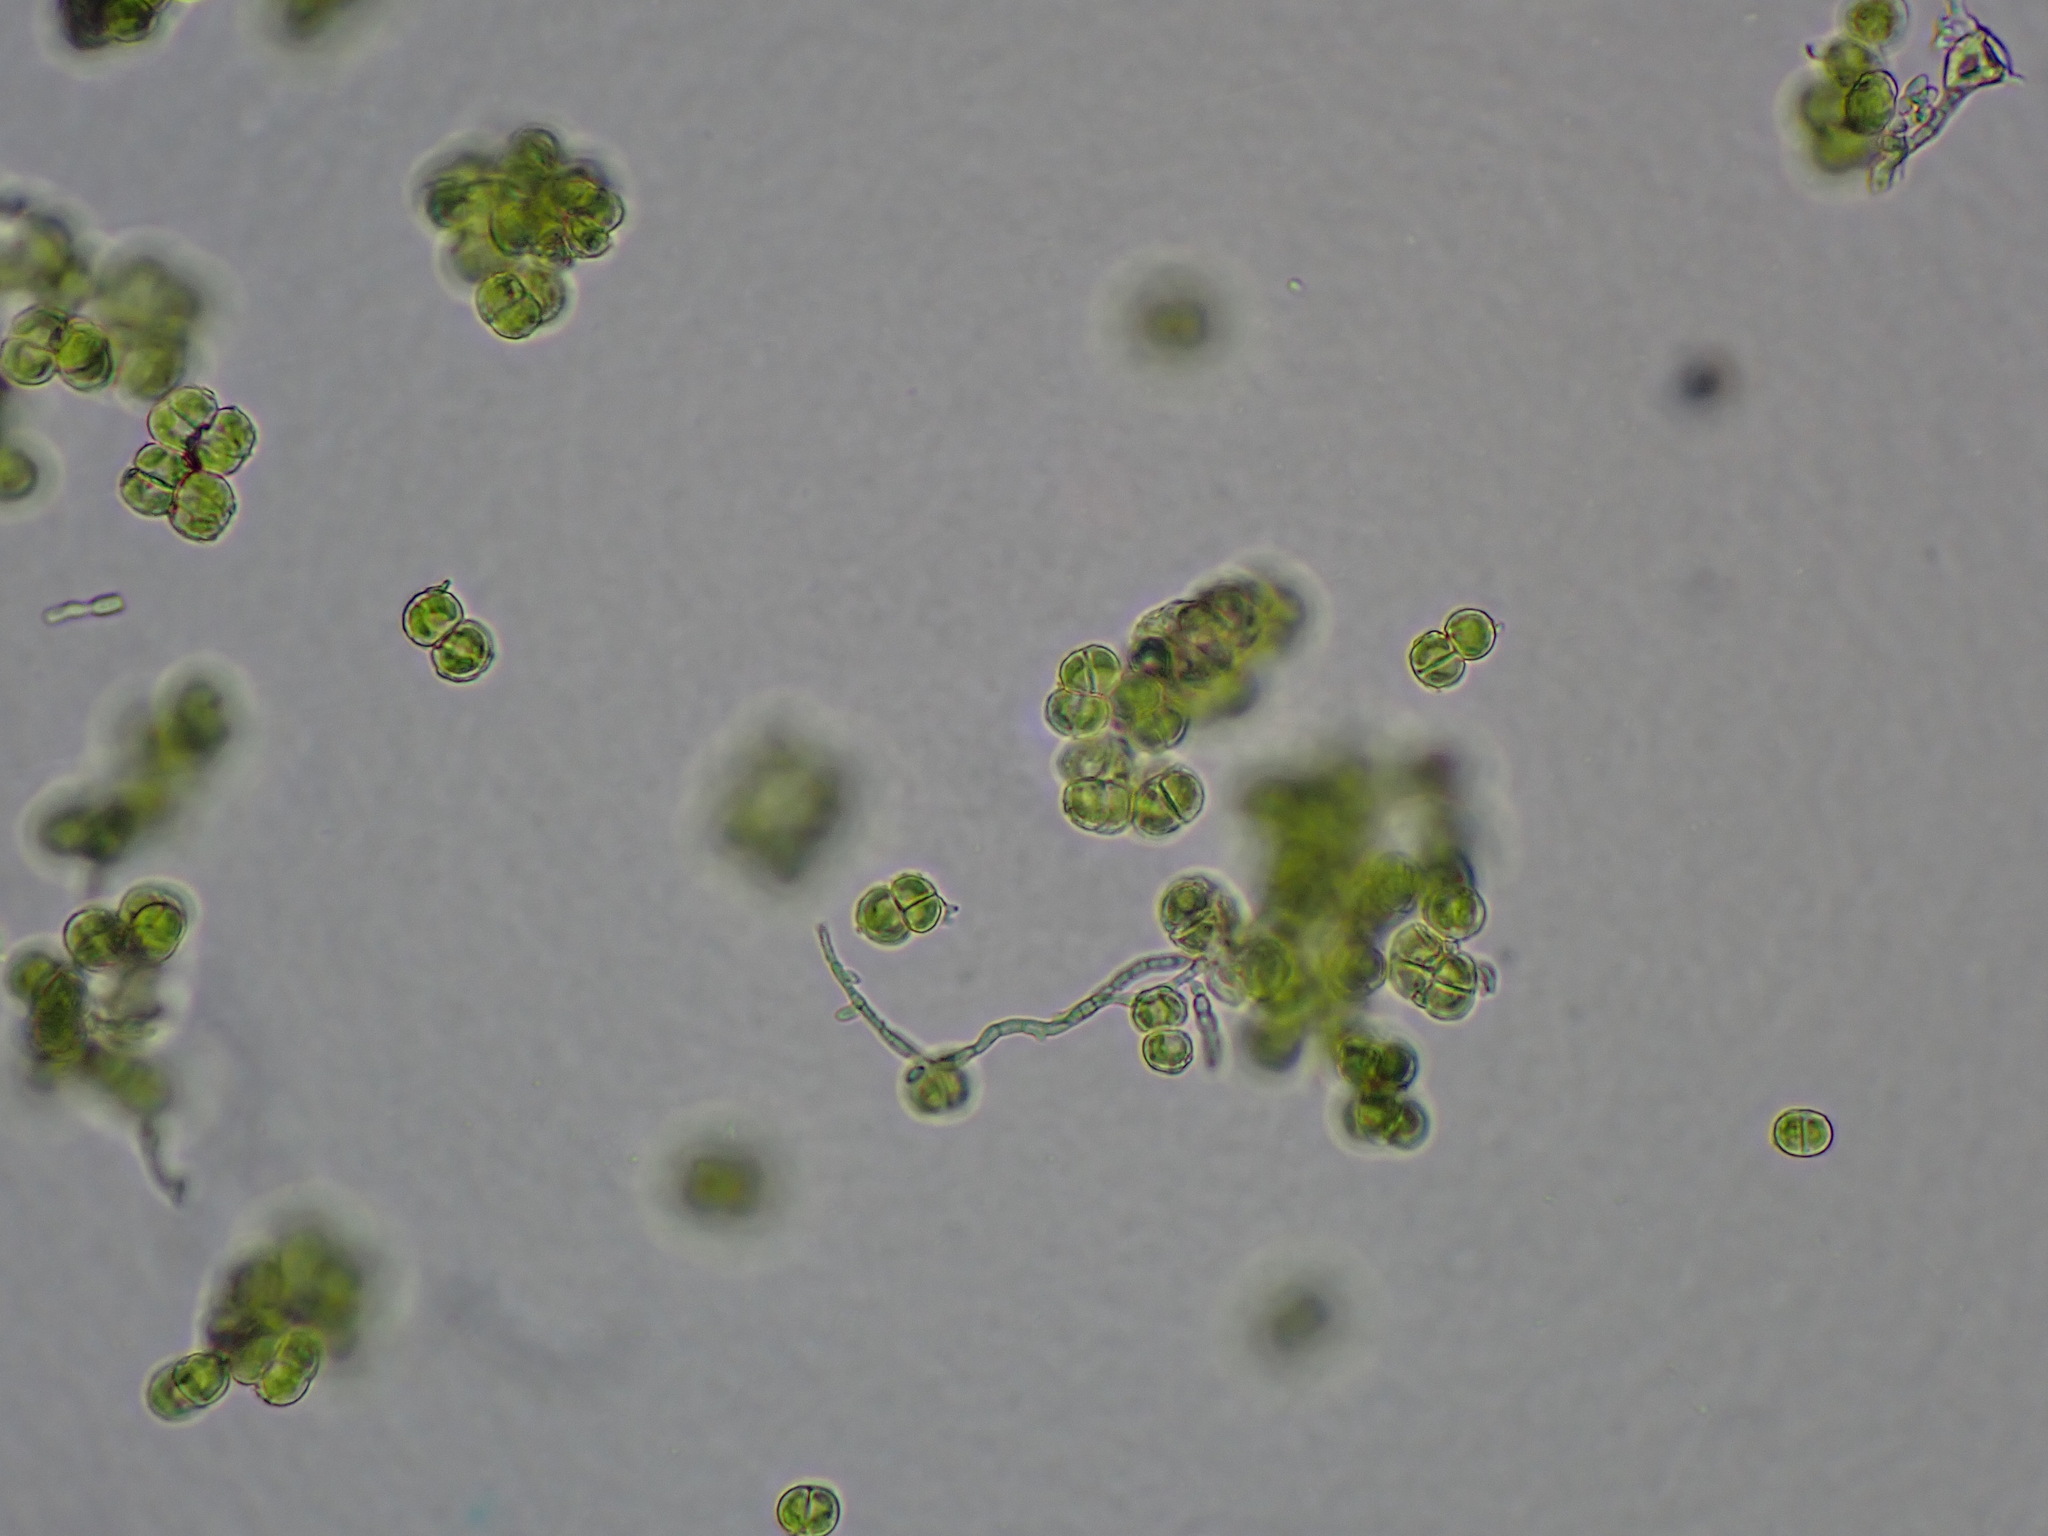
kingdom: Plantae
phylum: Chlorophyta
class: Chlorophyceae
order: Chaetophorales
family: Chaetophoraceae
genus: Apatococcus
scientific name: Apatococcus lobatus
